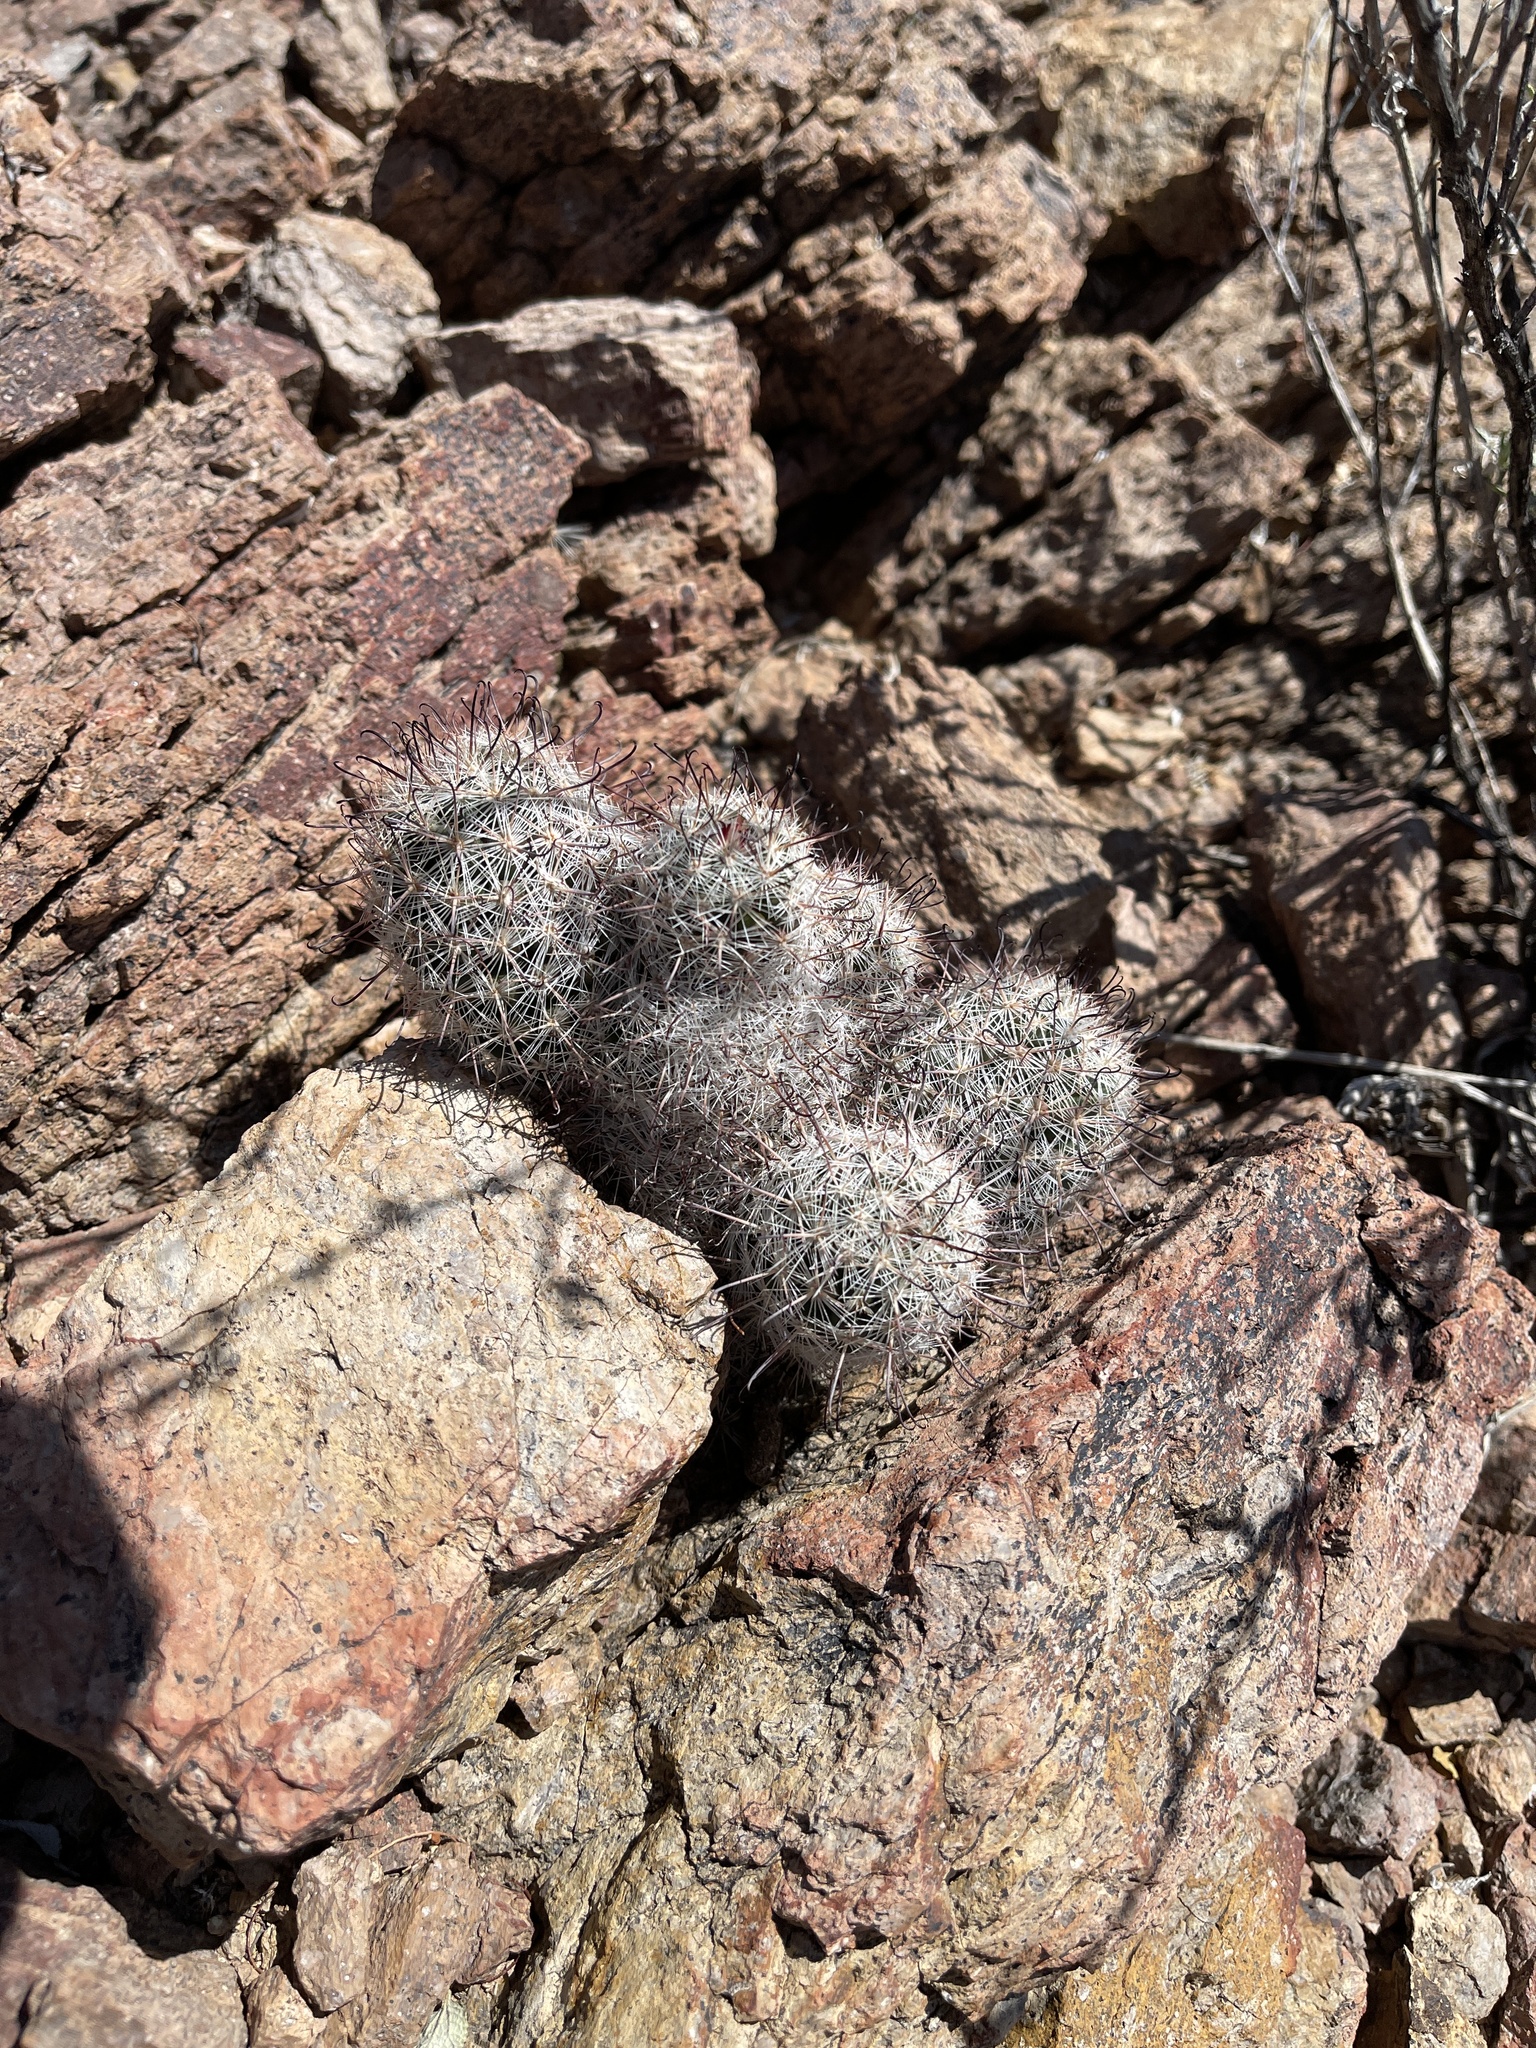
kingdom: Plantae
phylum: Tracheophyta
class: Magnoliopsida
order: Caryophyllales
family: Cactaceae
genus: Cochemiea
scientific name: Cochemiea grahamii
